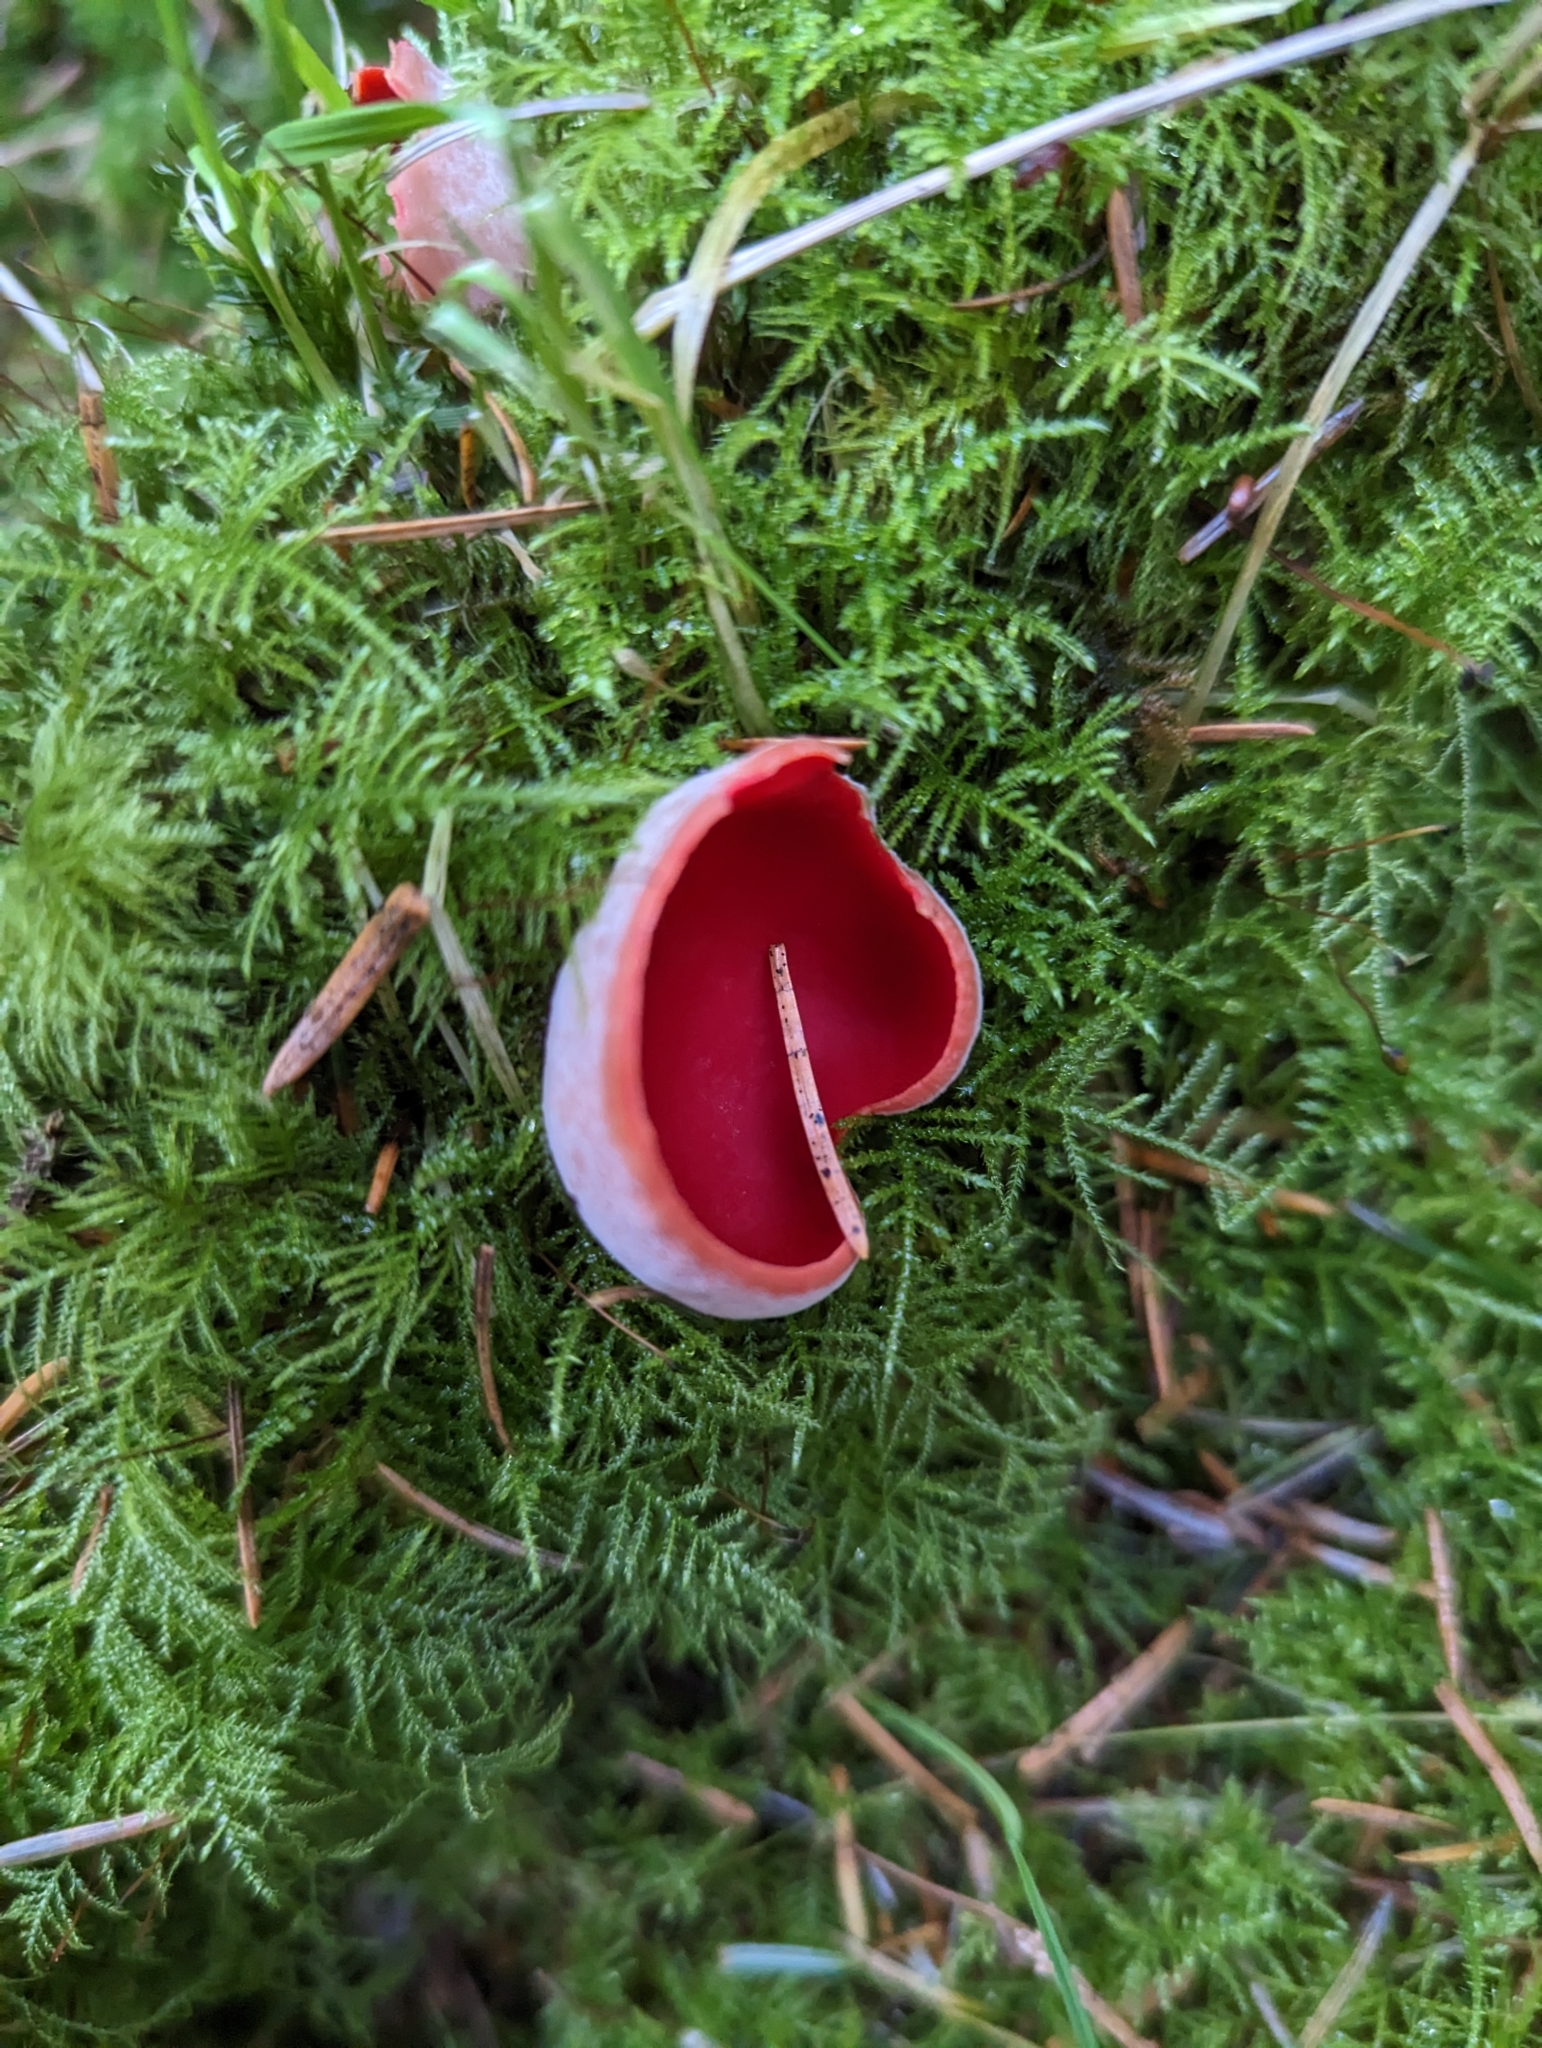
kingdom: Fungi
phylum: Ascomycota
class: Pezizomycetes
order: Pezizales
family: Sarcoscyphaceae
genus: Sarcoscypha
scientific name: Sarcoscypha
